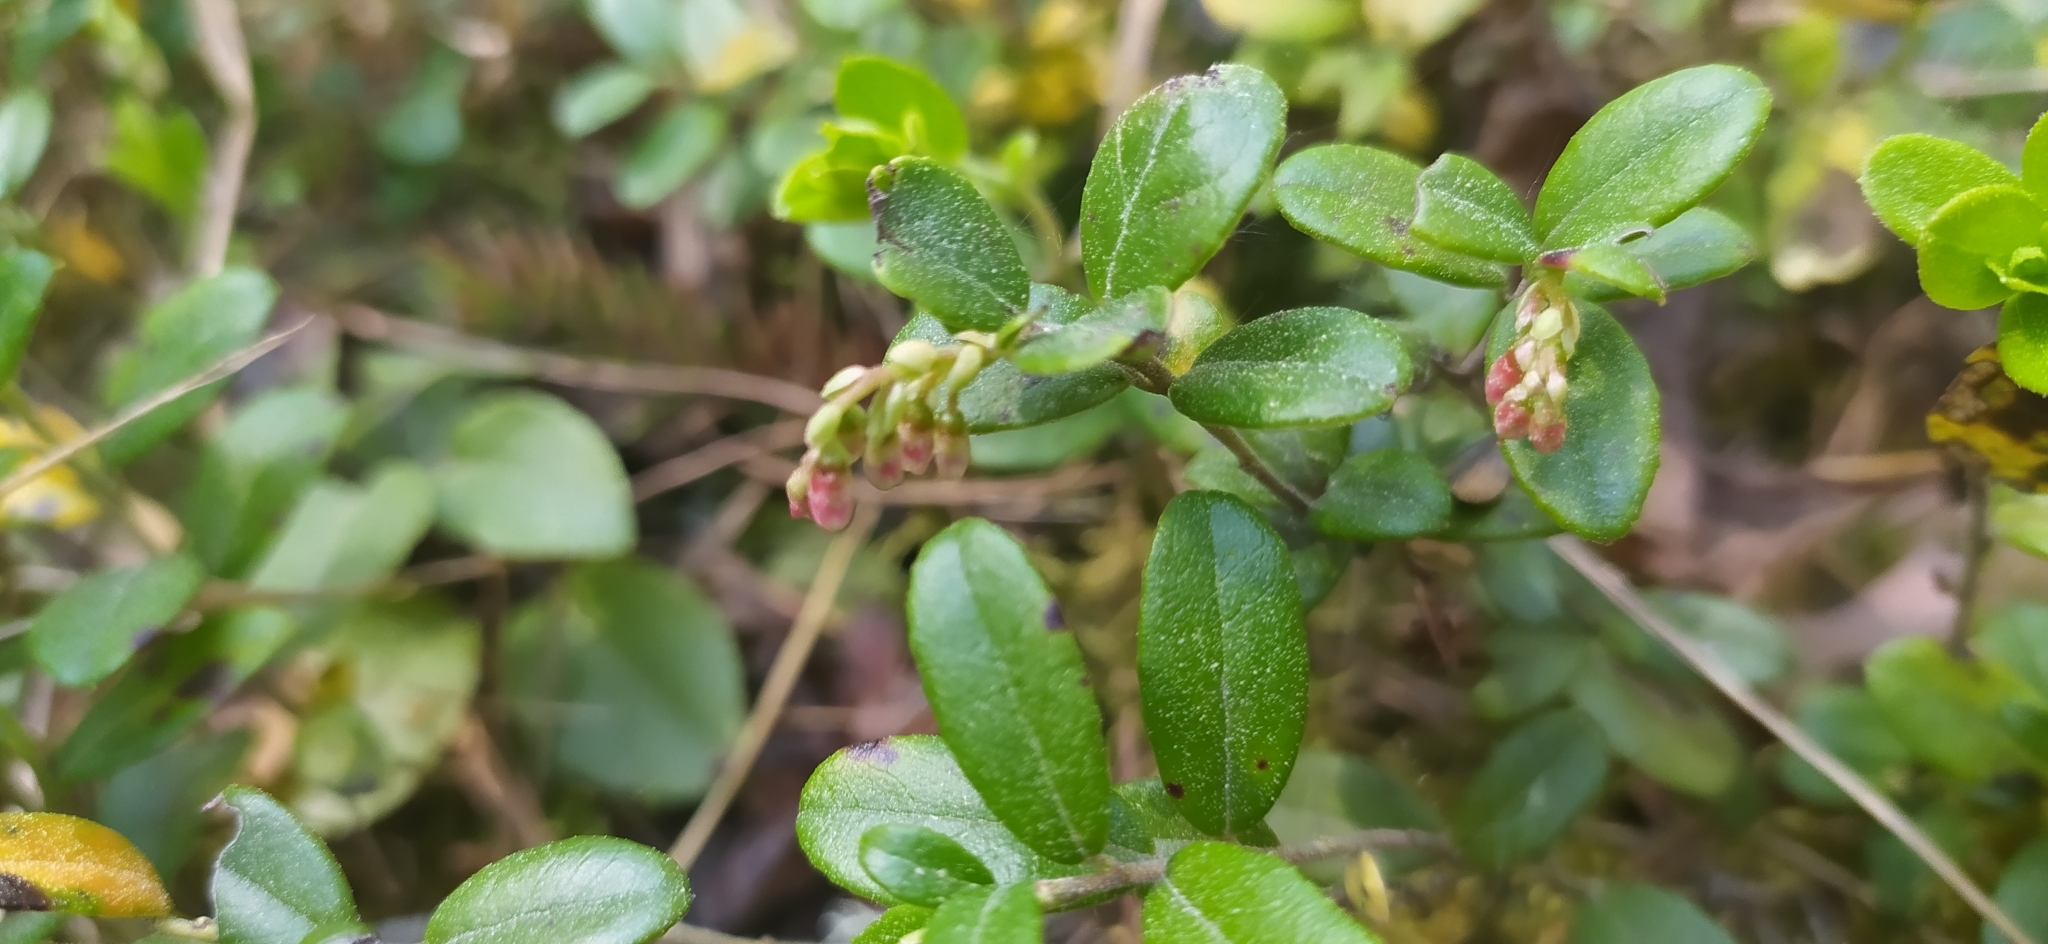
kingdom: Plantae
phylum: Tracheophyta
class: Magnoliopsida
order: Ericales
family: Ericaceae
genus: Vaccinium
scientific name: Vaccinium vitis-idaea
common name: Cowberry
